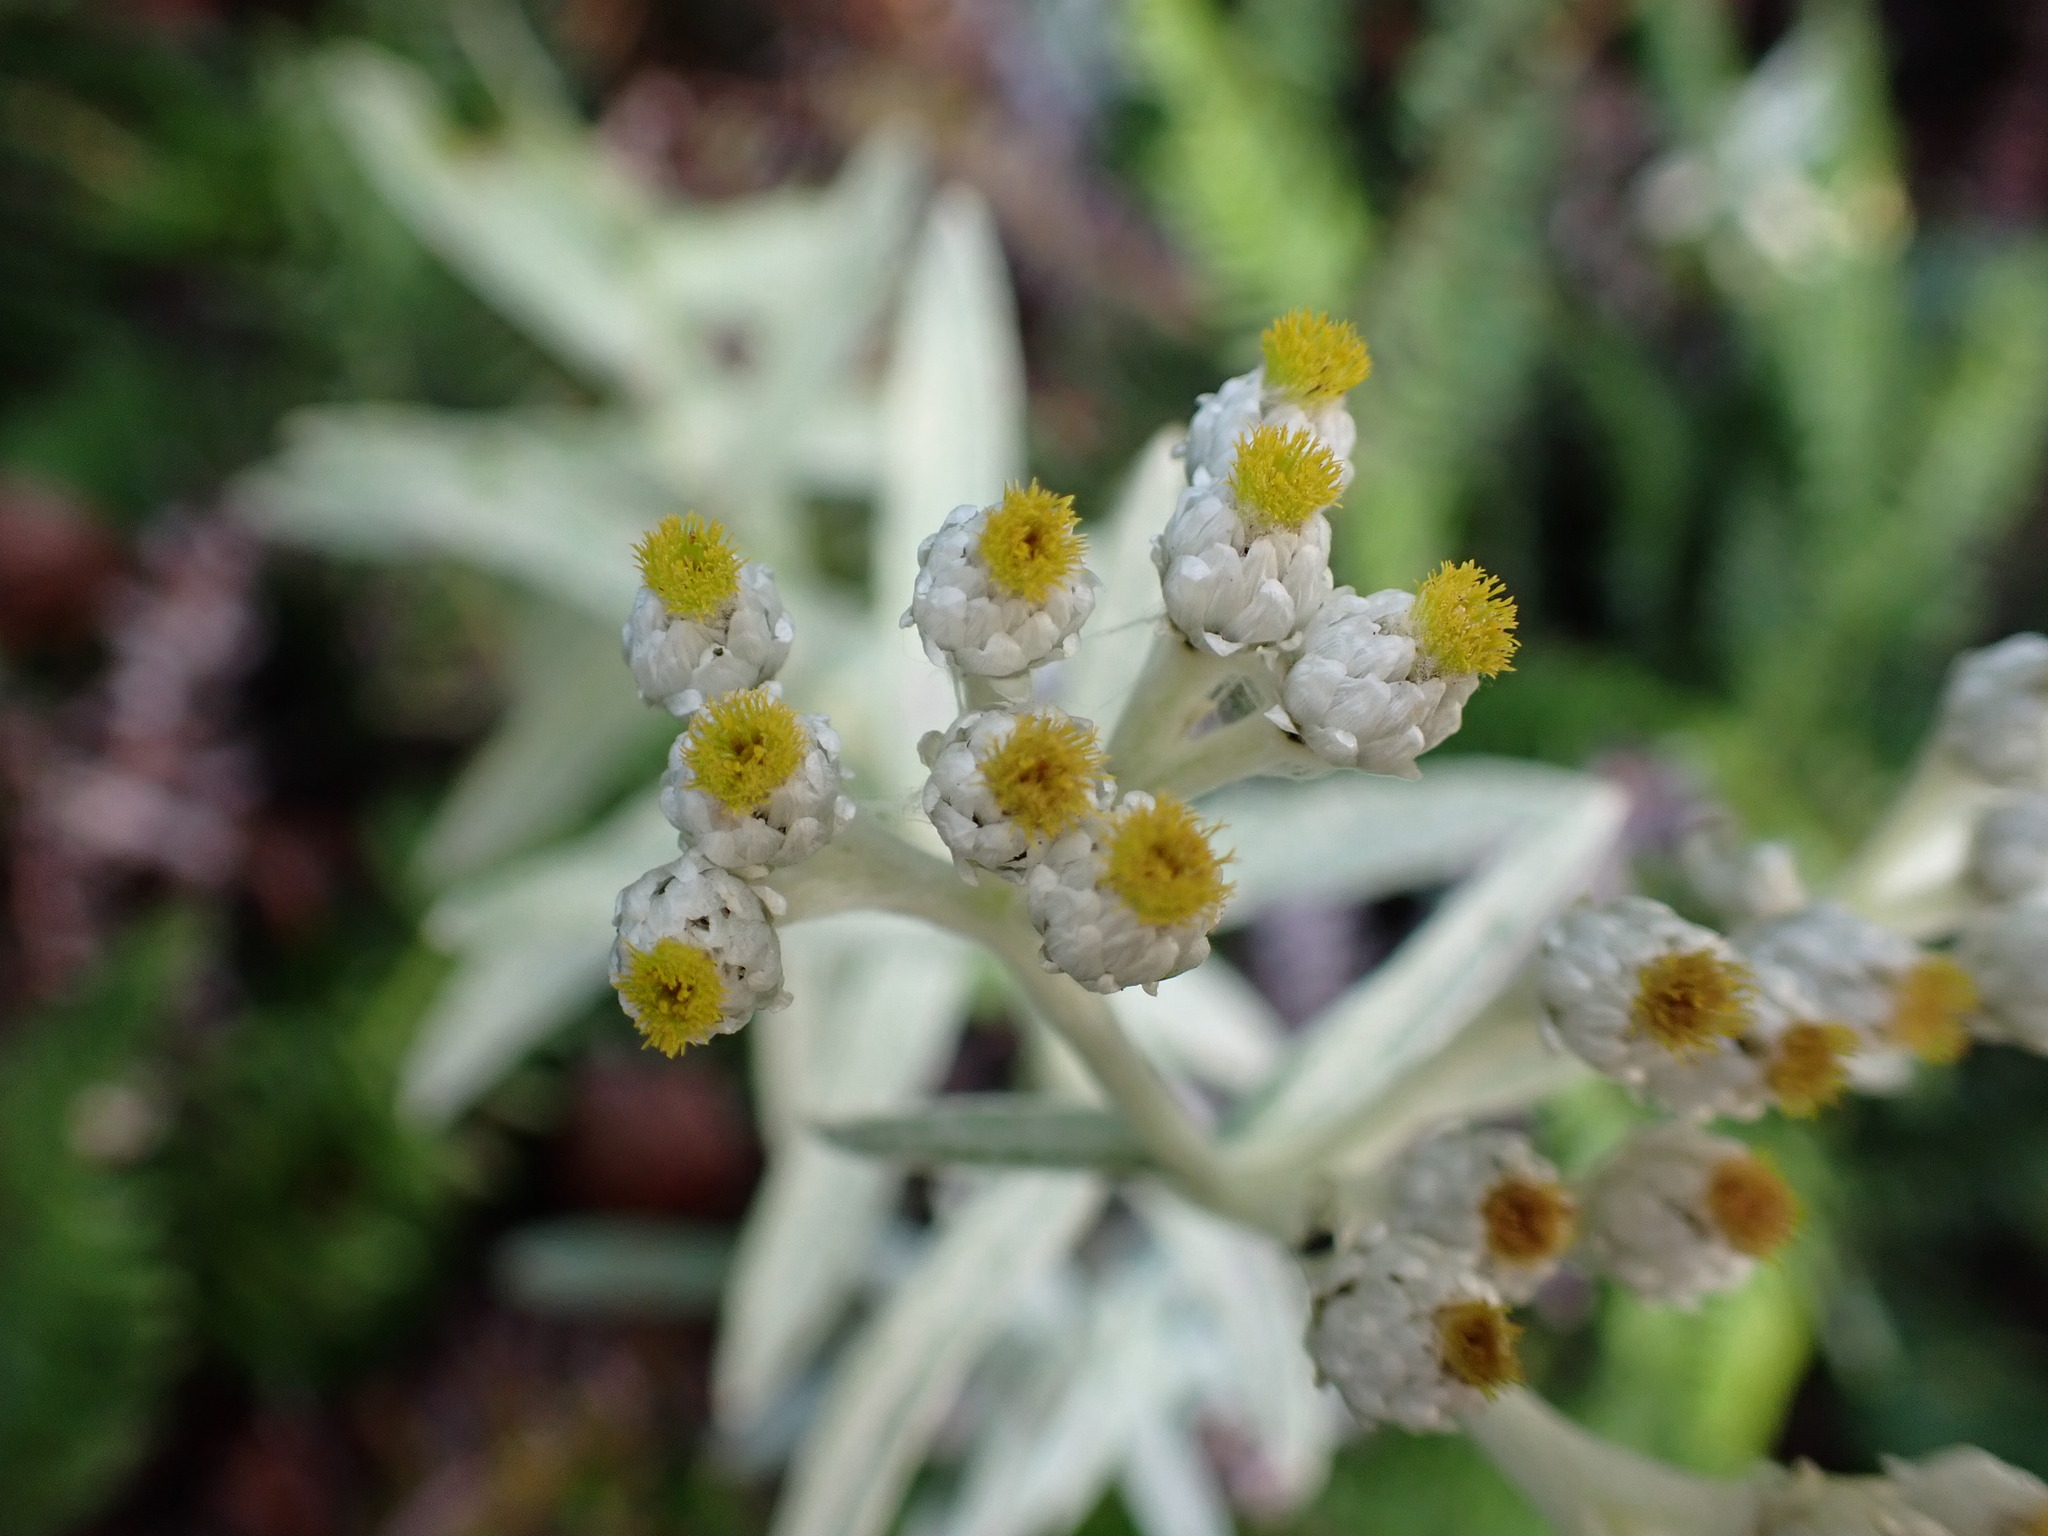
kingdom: Plantae
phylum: Tracheophyta
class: Magnoliopsida
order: Asterales
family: Asteraceae
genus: Anaphalis
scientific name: Anaphalis margaritacea
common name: Pearly everlasting
